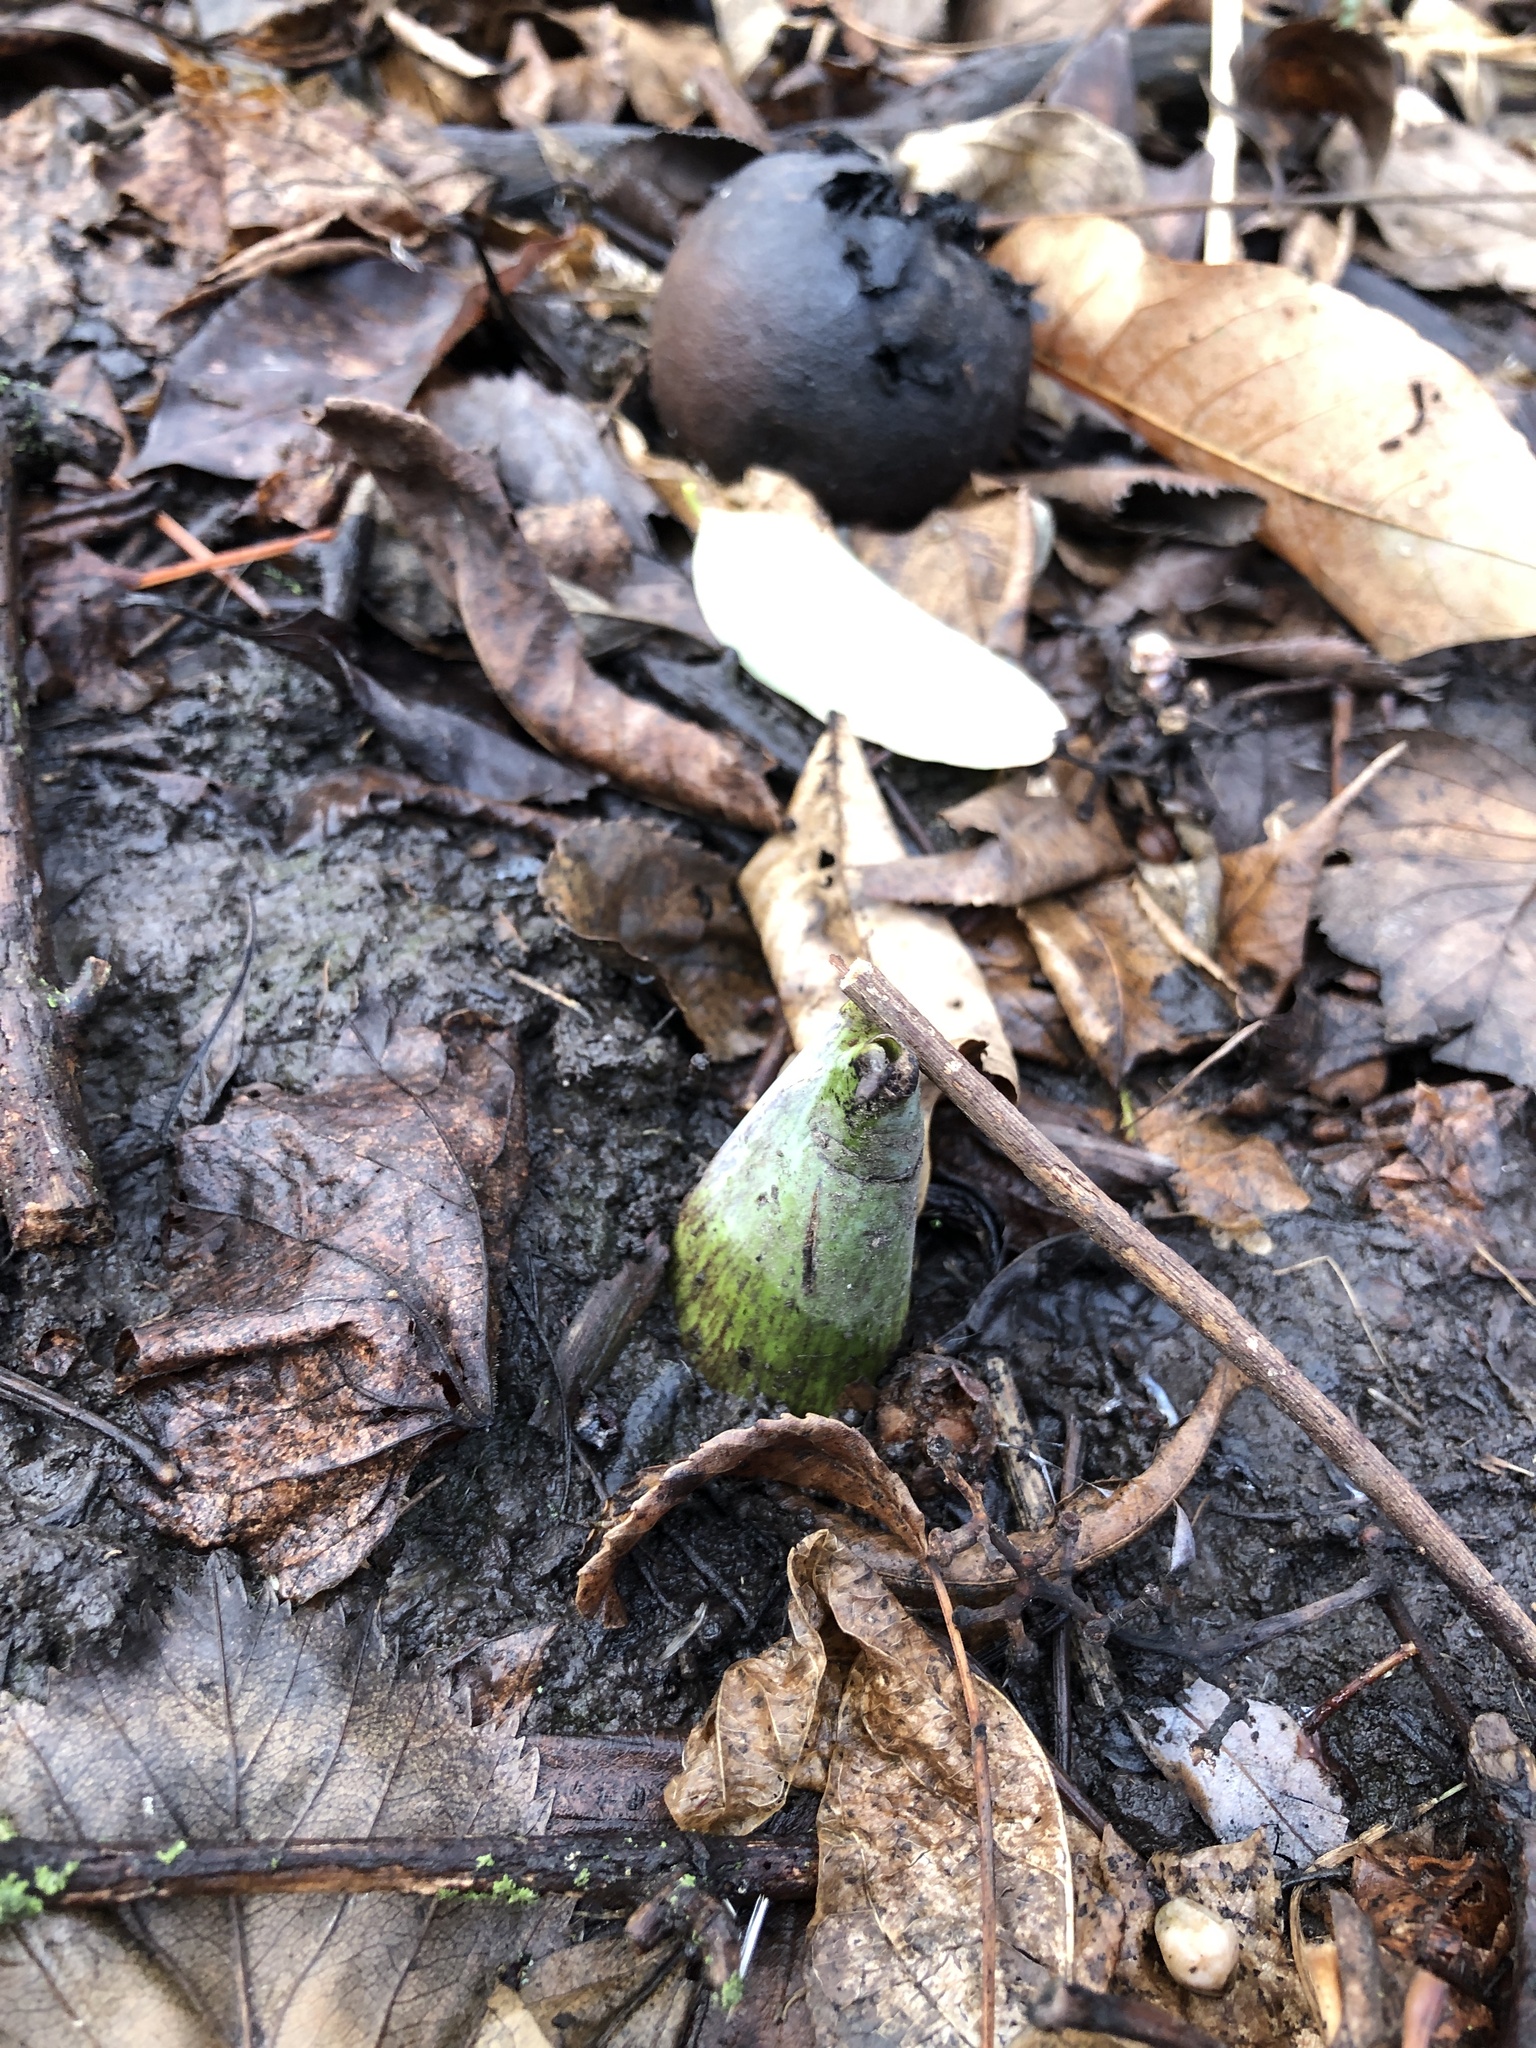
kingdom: Plantae
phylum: Tracheophyta
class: Liliopsida
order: Alismatales
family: Araceae
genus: Symplocarpus
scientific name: Symplocarpus foetidus
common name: Eastern skunk cabbage
